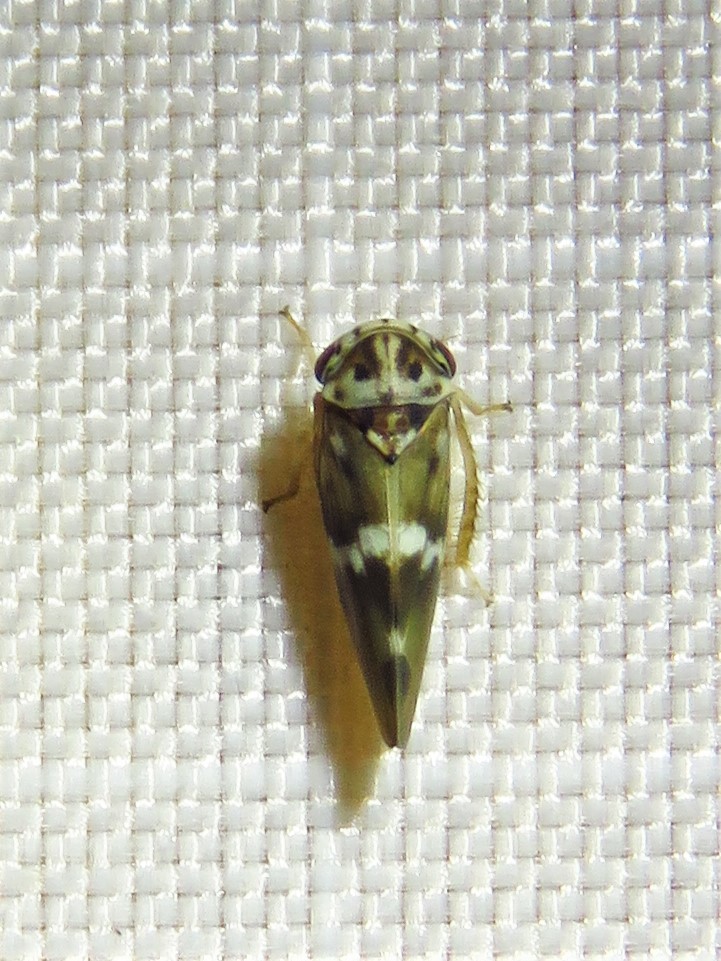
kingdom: Animalia
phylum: Arthropoda
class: Insecta
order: Hemiptera
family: Cicadellidae
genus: Agalliopsis
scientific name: Agalliopsis cervina
